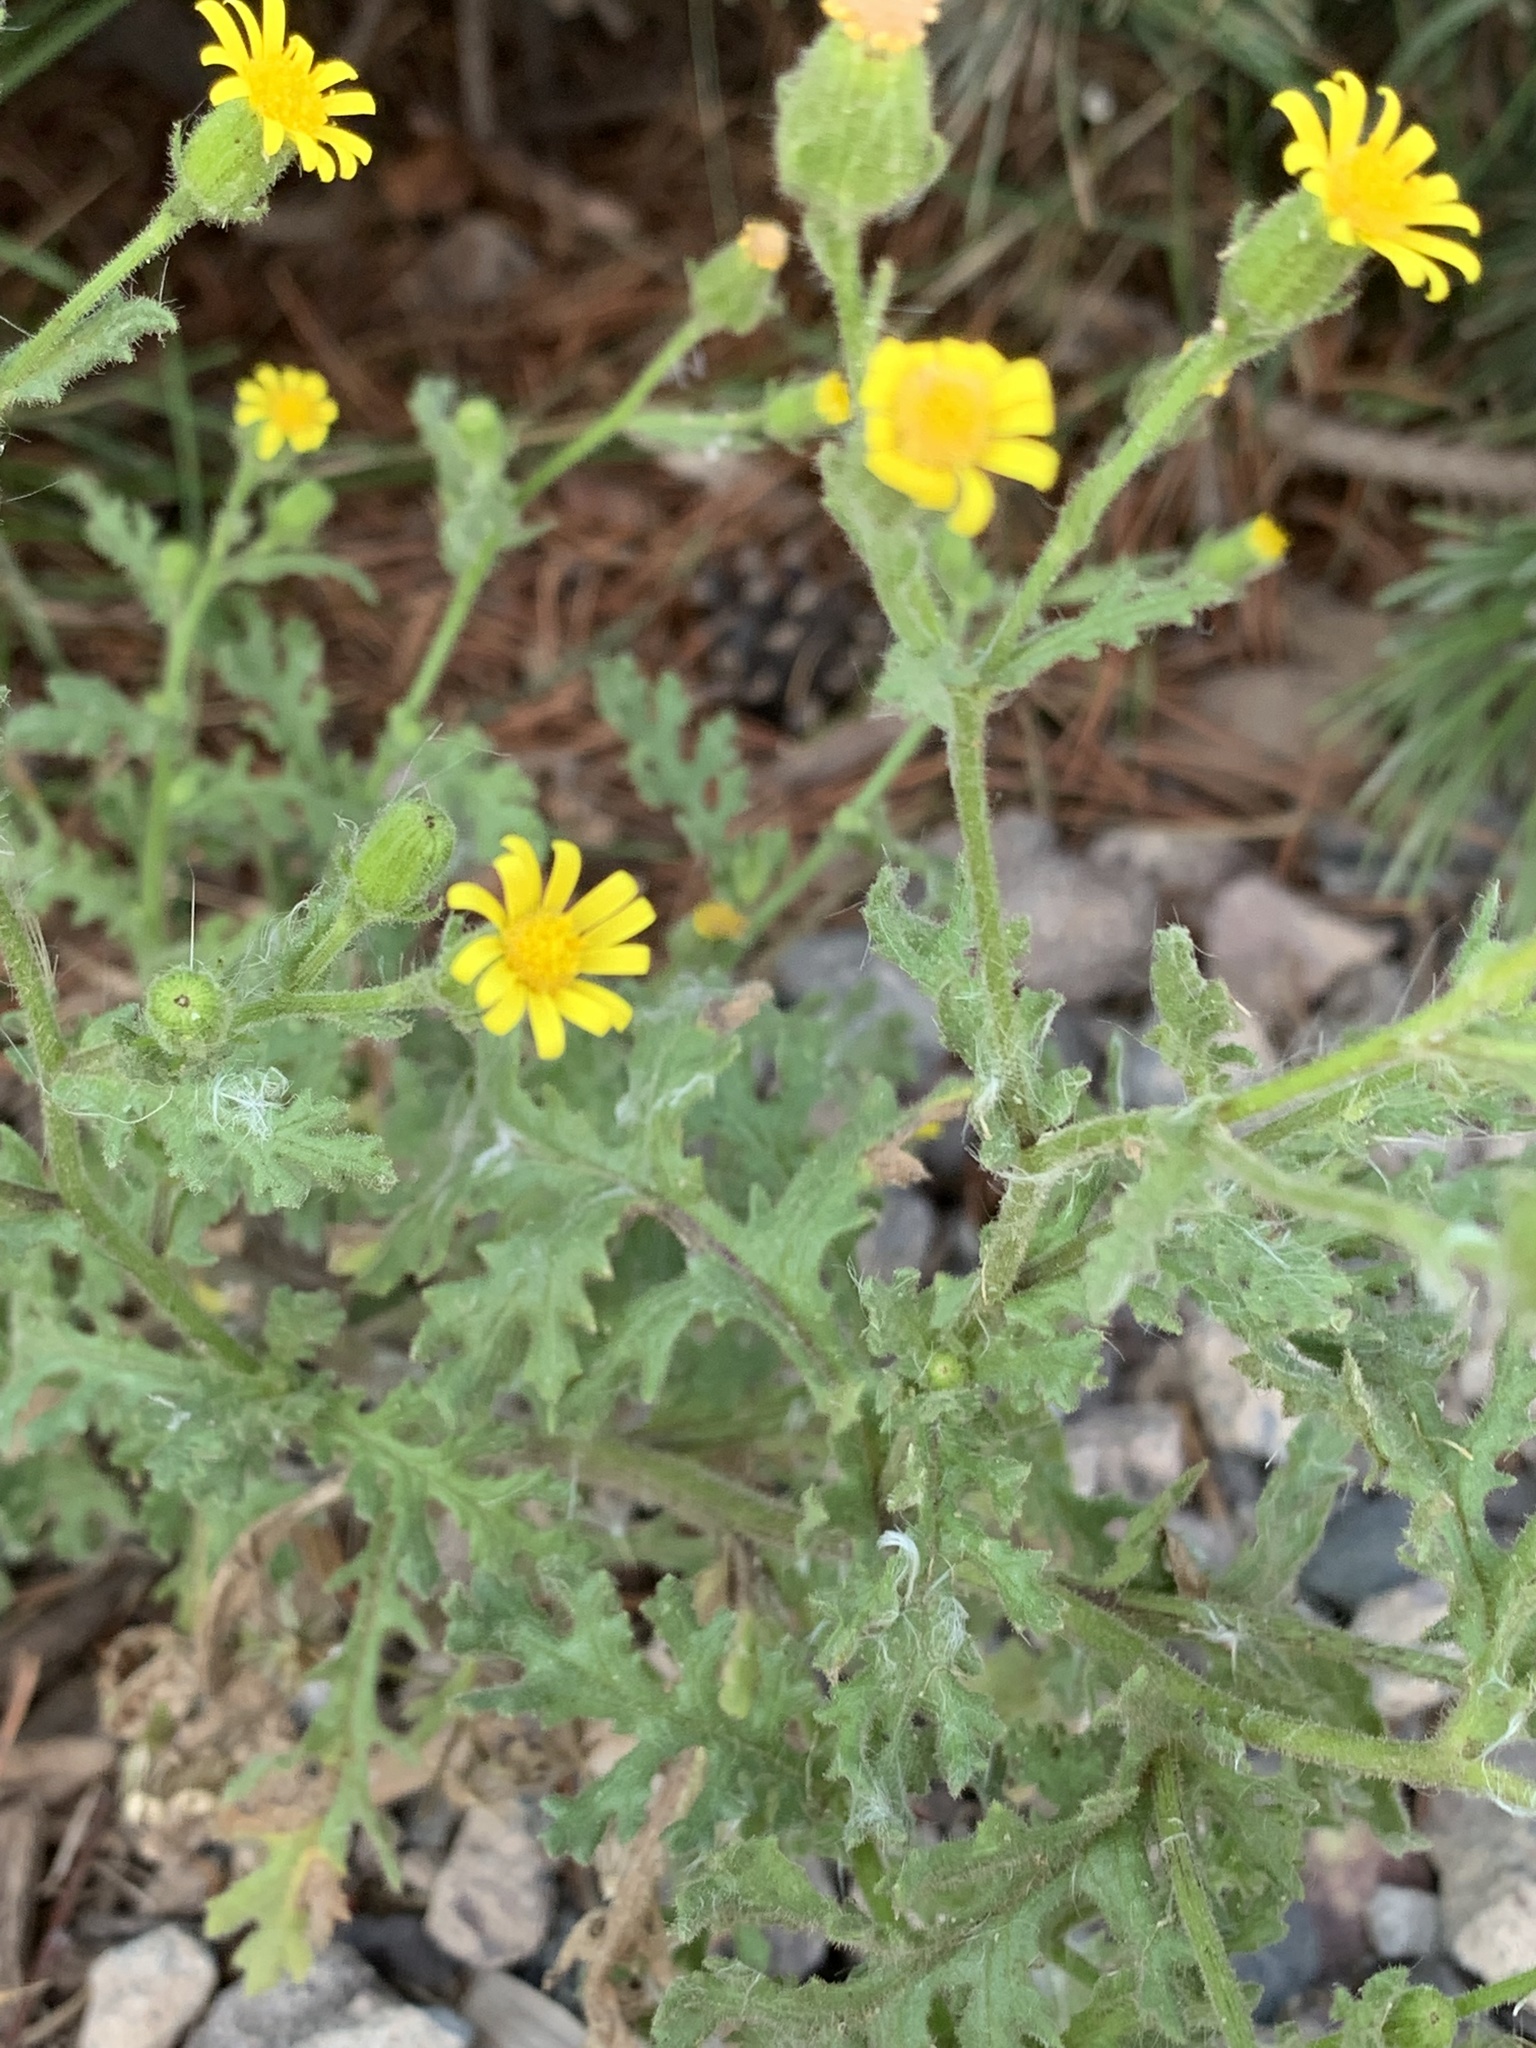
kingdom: Plantae
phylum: Tracheophyta
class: Magnoliopsida
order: Asterales
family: Asteraceae
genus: Senecio
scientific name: Senecio viscosus
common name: Sticky groundsel
